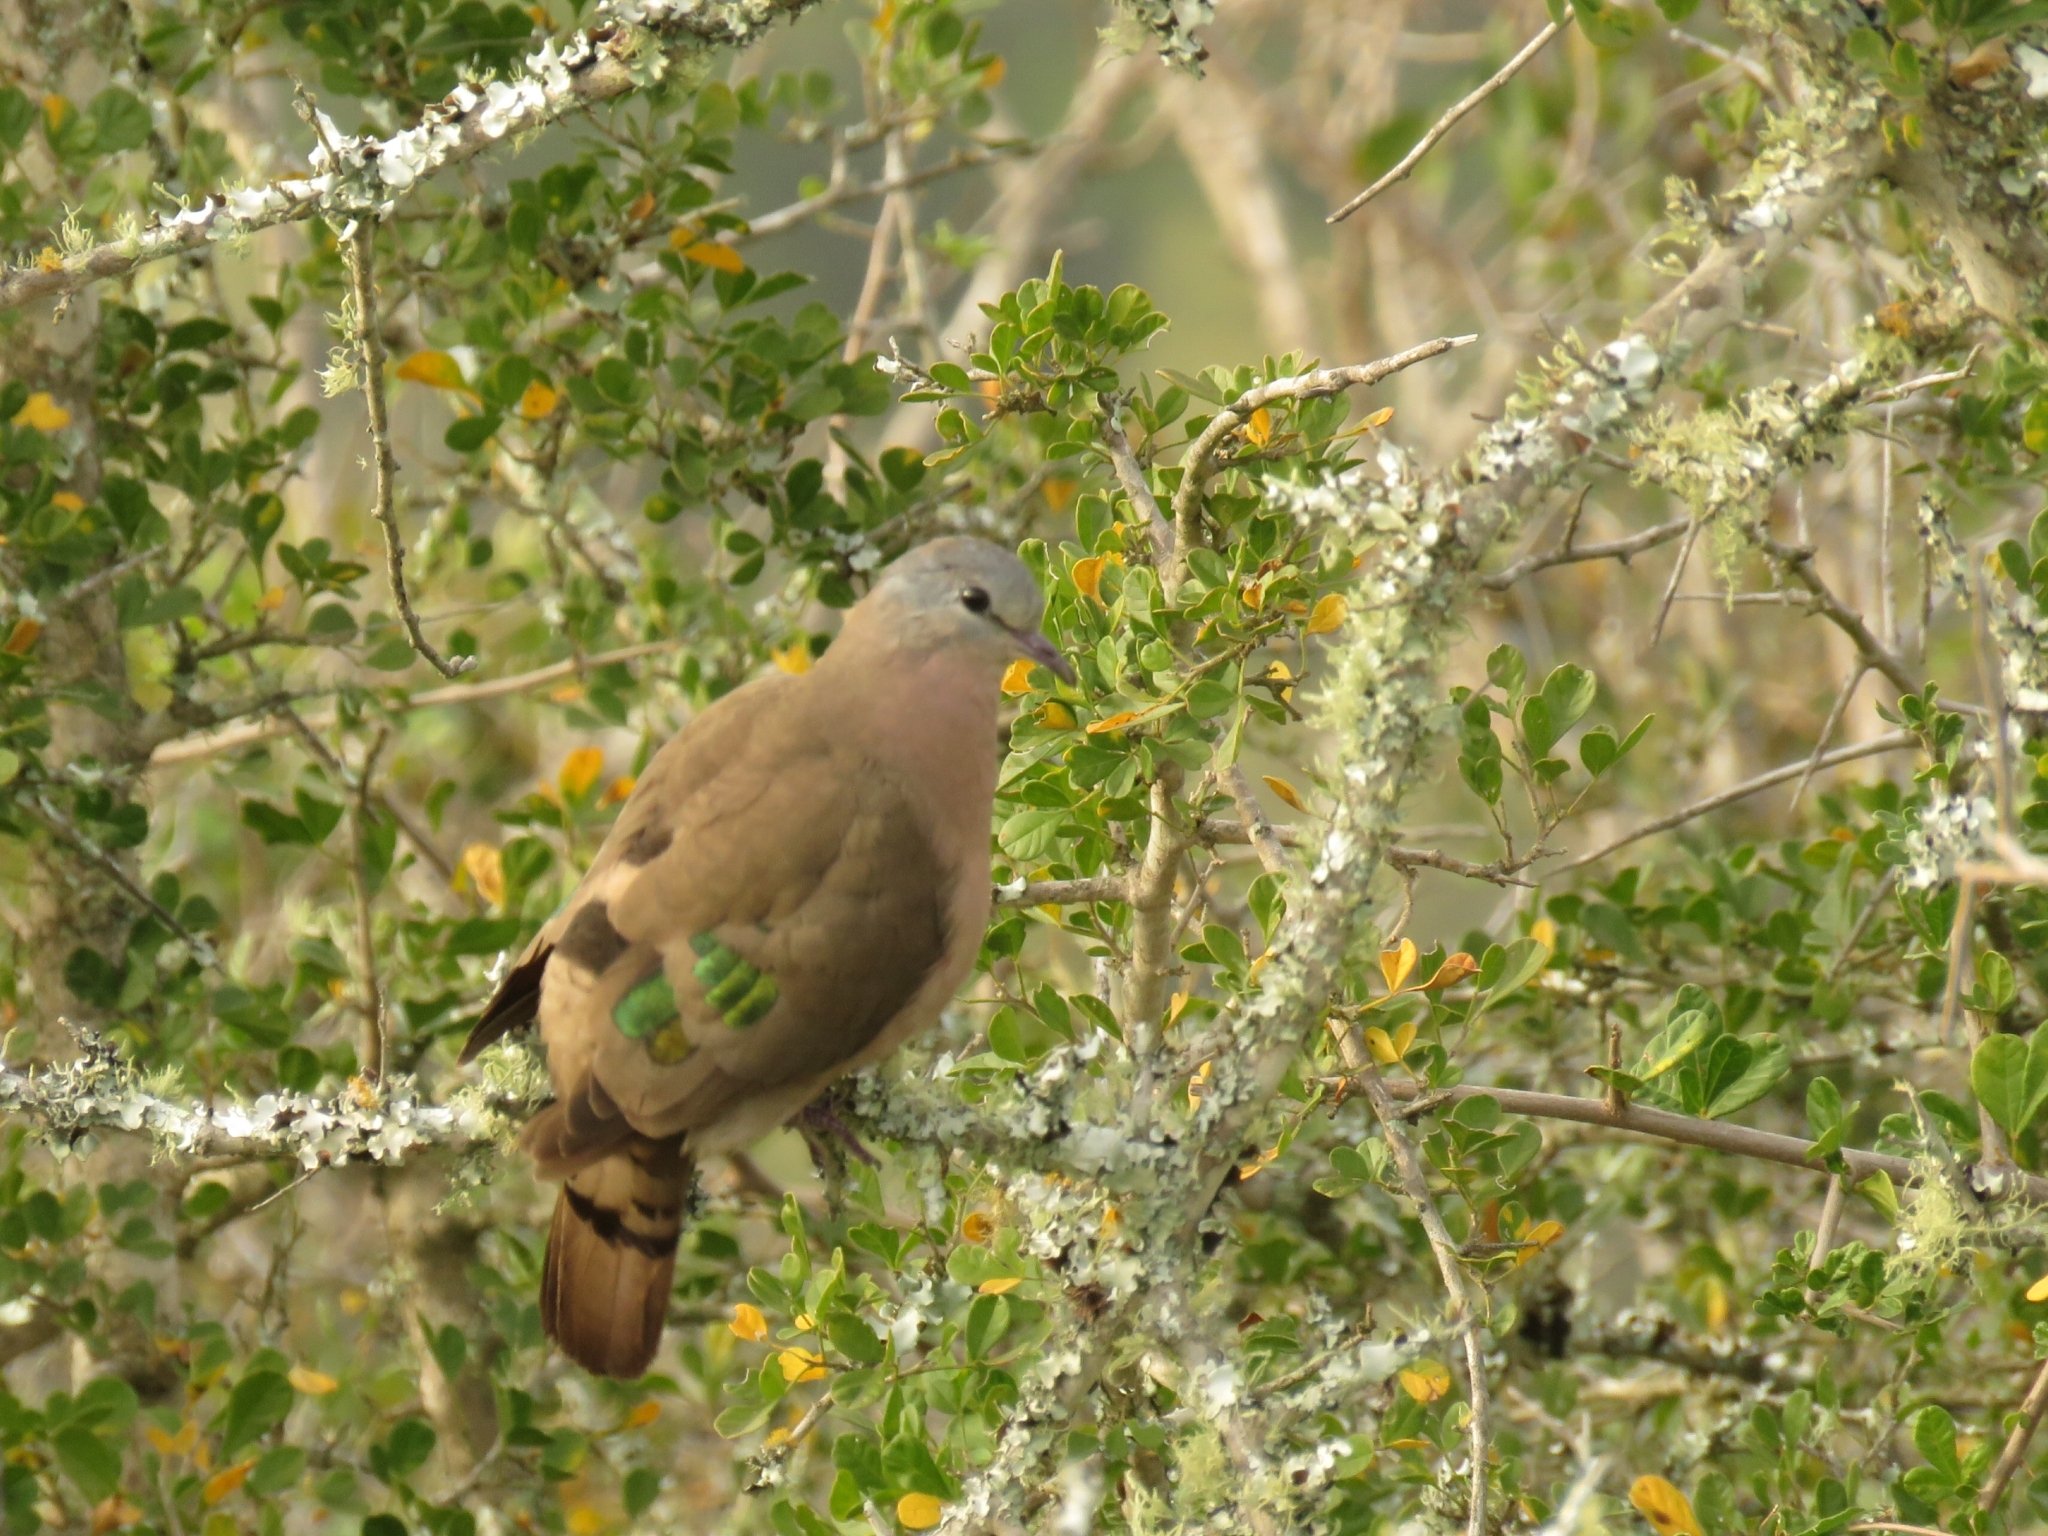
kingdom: Animalia
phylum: Chordata
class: Aves
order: Columbiformes
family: Columbidae
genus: Turtur
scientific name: Turtur chalcospilos
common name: Emerald-spotted wood dove
